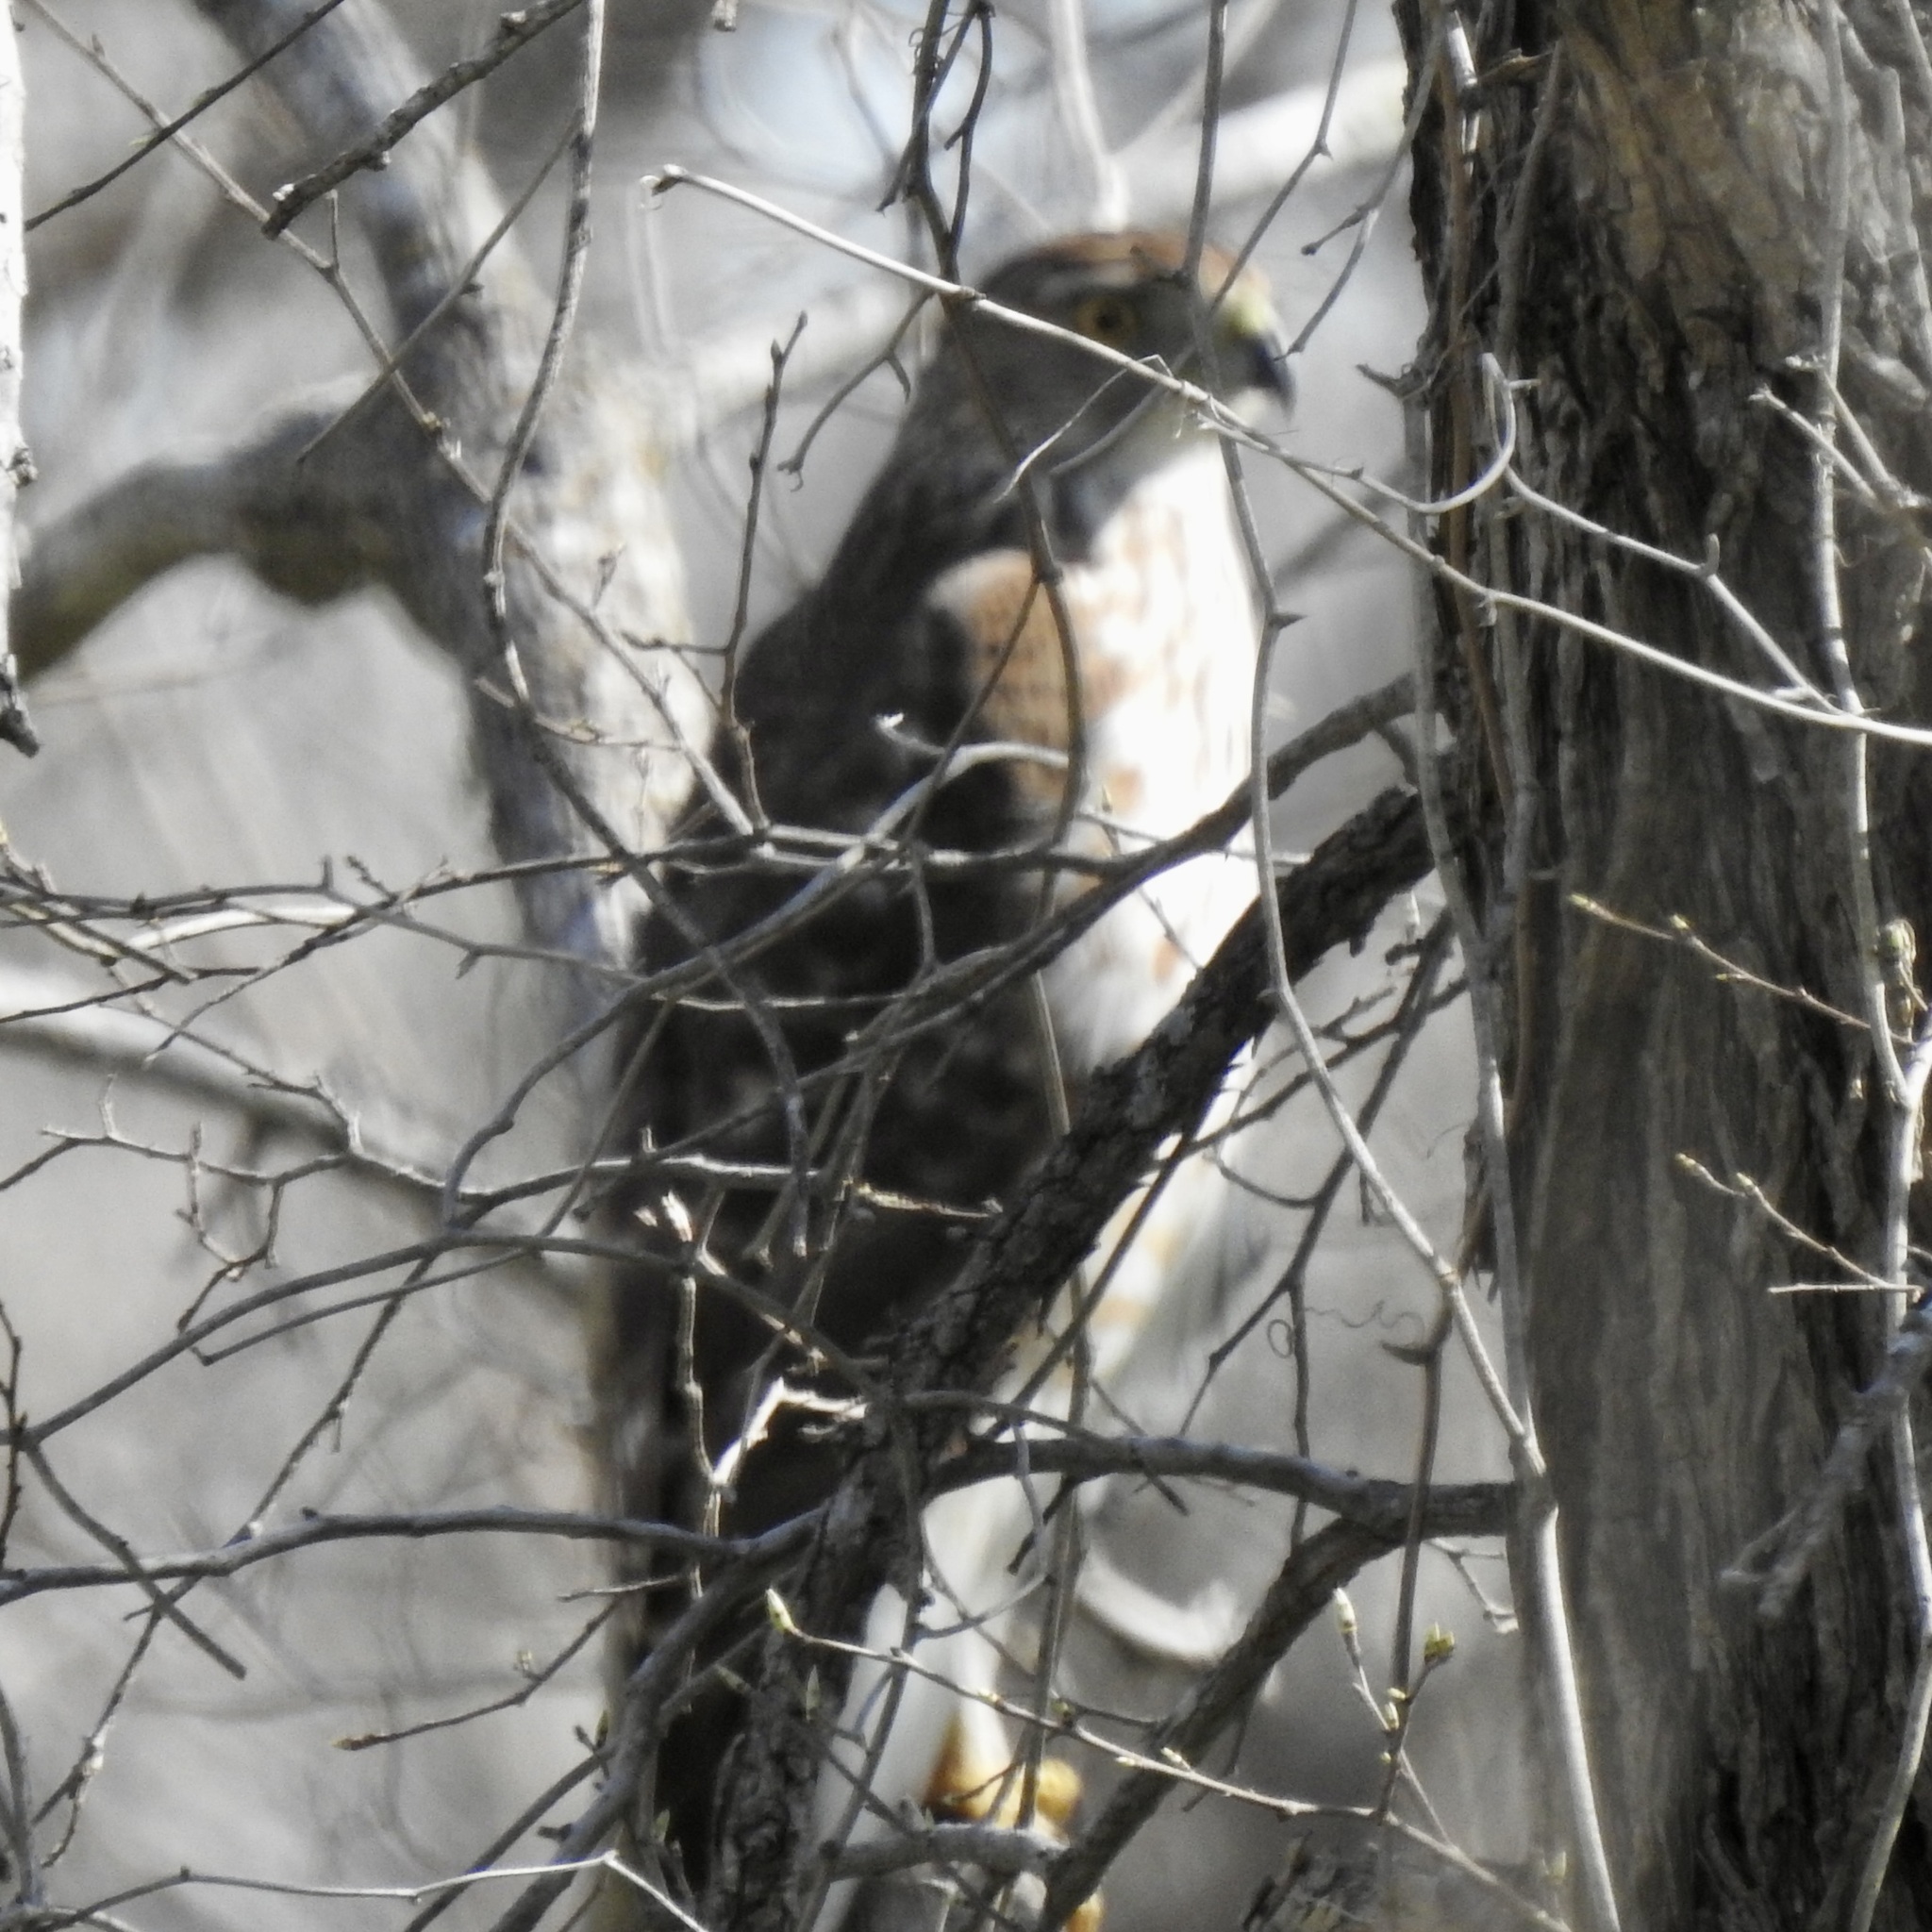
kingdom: Animalia
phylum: Chordata
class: Aves
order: Accipitriformes
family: Accipitridae
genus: Accipiter
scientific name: Accipiter cooperii
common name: Cooper's hawk
